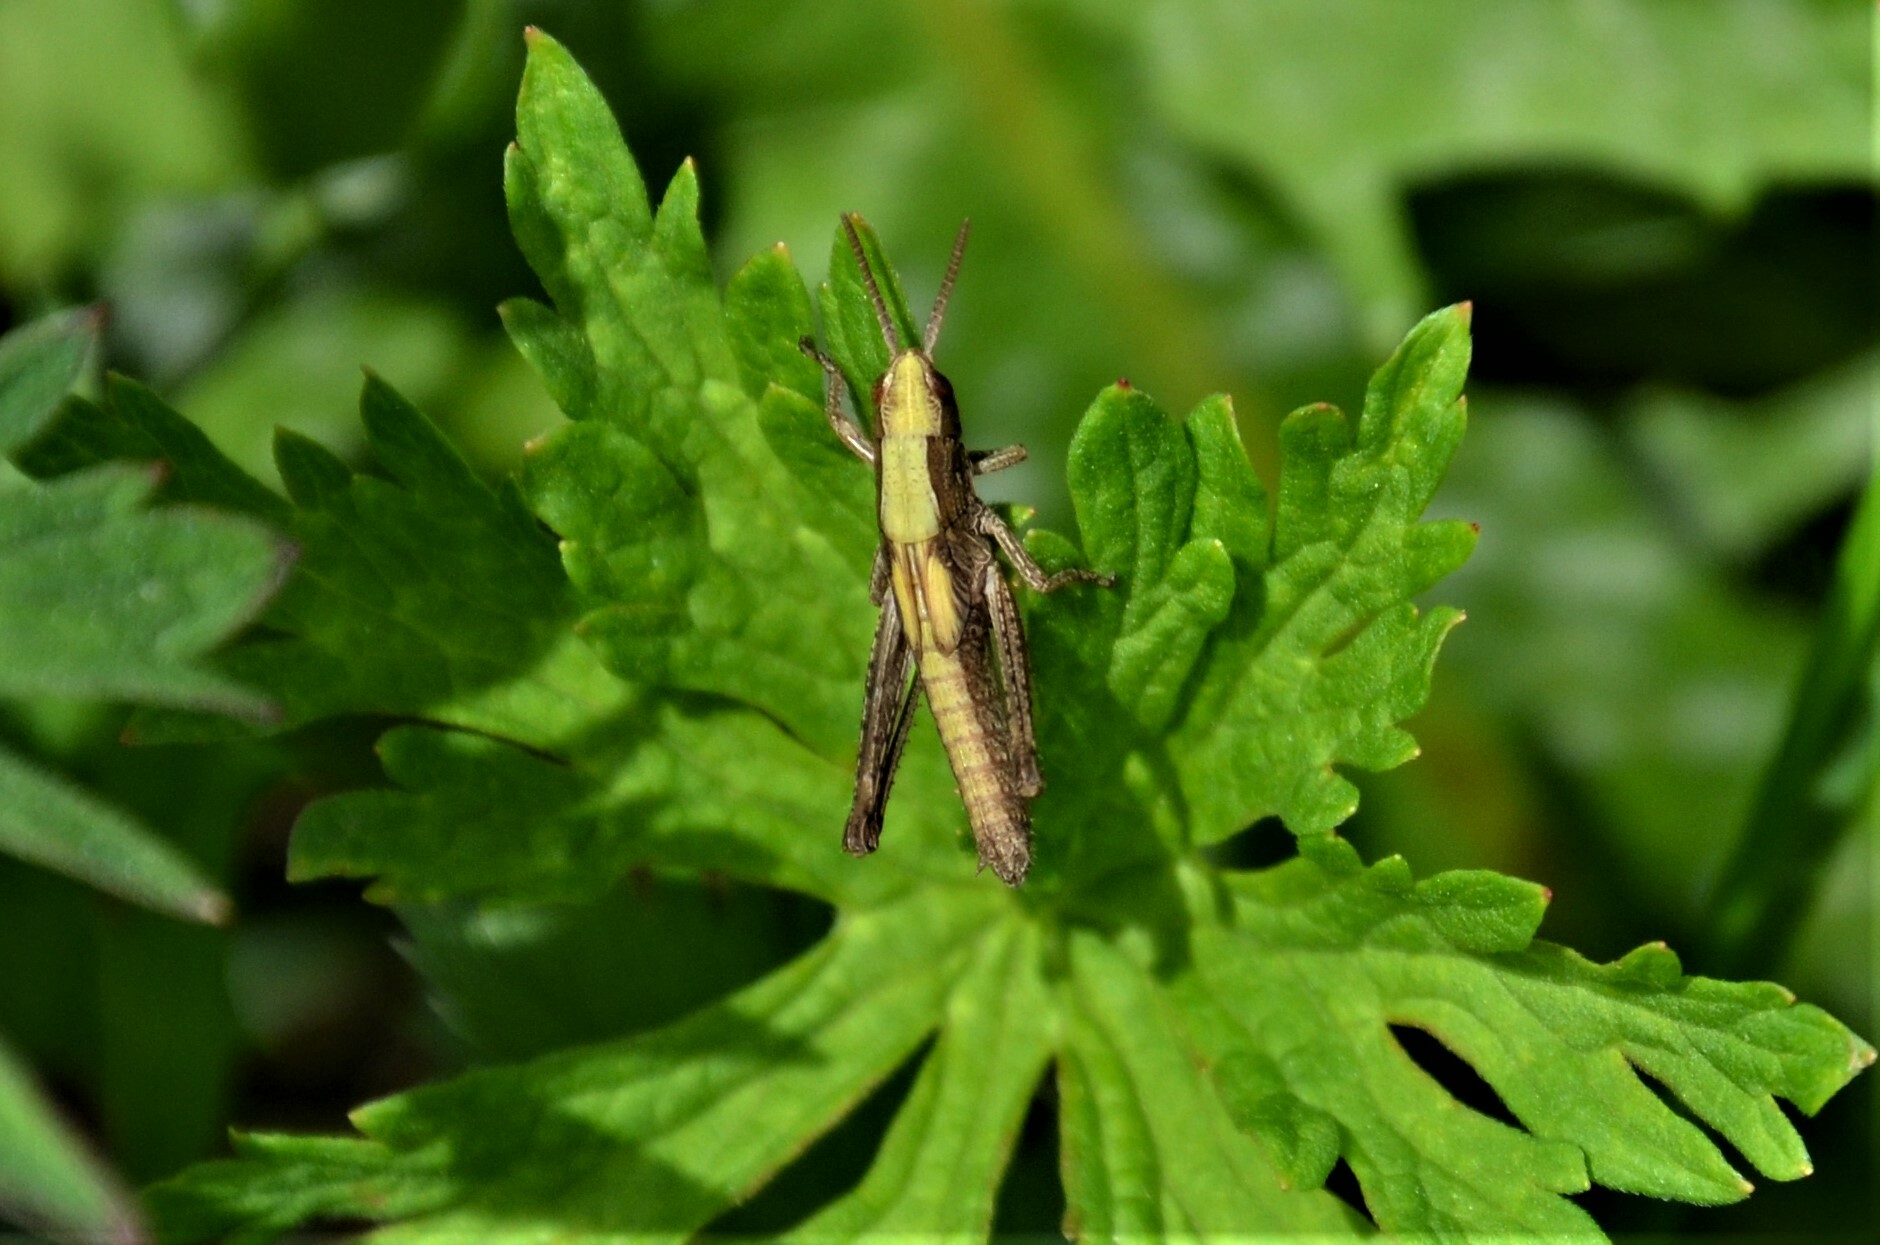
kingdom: Animalia
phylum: Arthropoda
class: Insecta
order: Orthoptera
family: Acrididae
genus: Chorthippus
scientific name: Chorthippus dorsatus
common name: Steppe grasshopper
